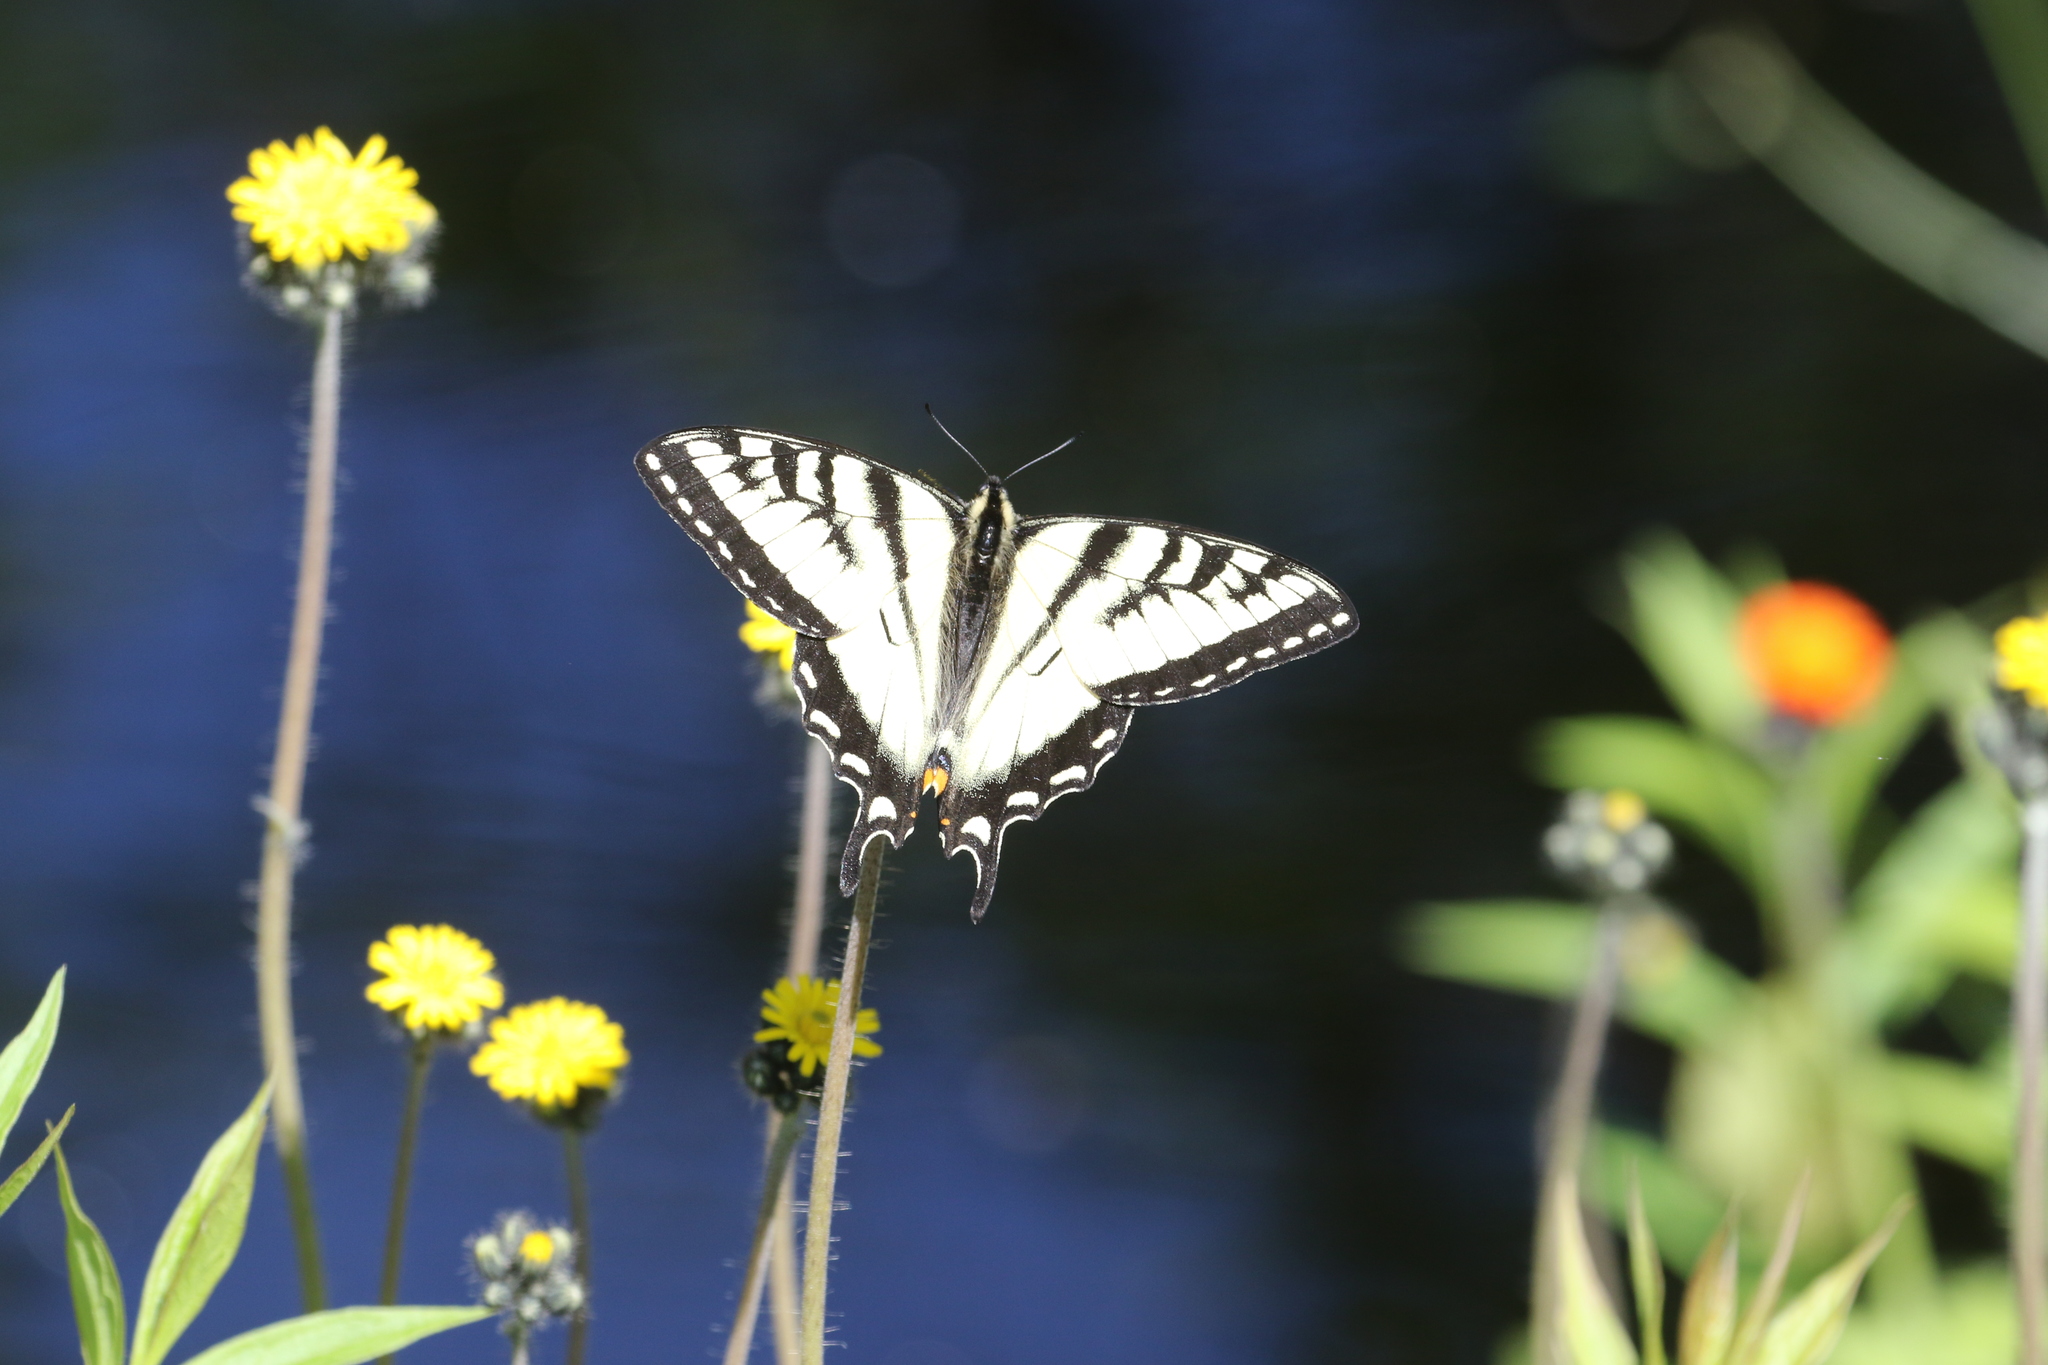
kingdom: Animalia
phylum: Arthropoda
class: Insecta
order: Lepidoptera
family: Papilionidae
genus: Papilio
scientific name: Papilio canadensis
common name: Canadian tiger swallowtail
